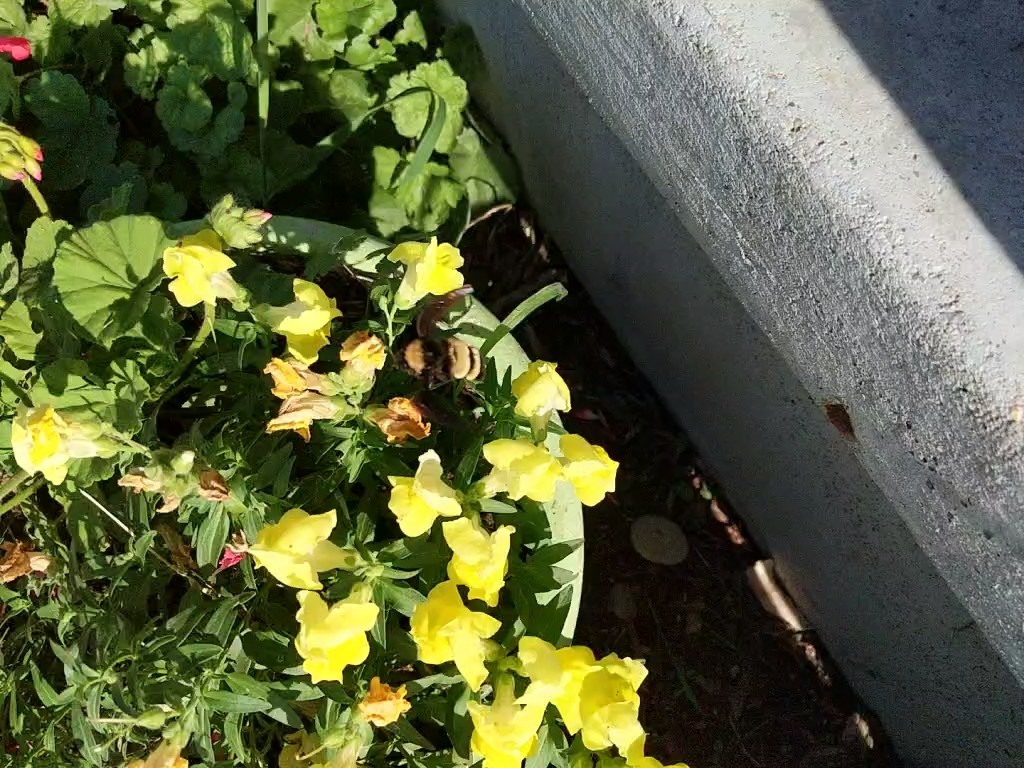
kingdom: Animalia
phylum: Arthropoda
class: Insecta
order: Hymenoptera
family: Apidae
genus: Bombus
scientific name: Bombus pensylvanicus
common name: Bumble bee
